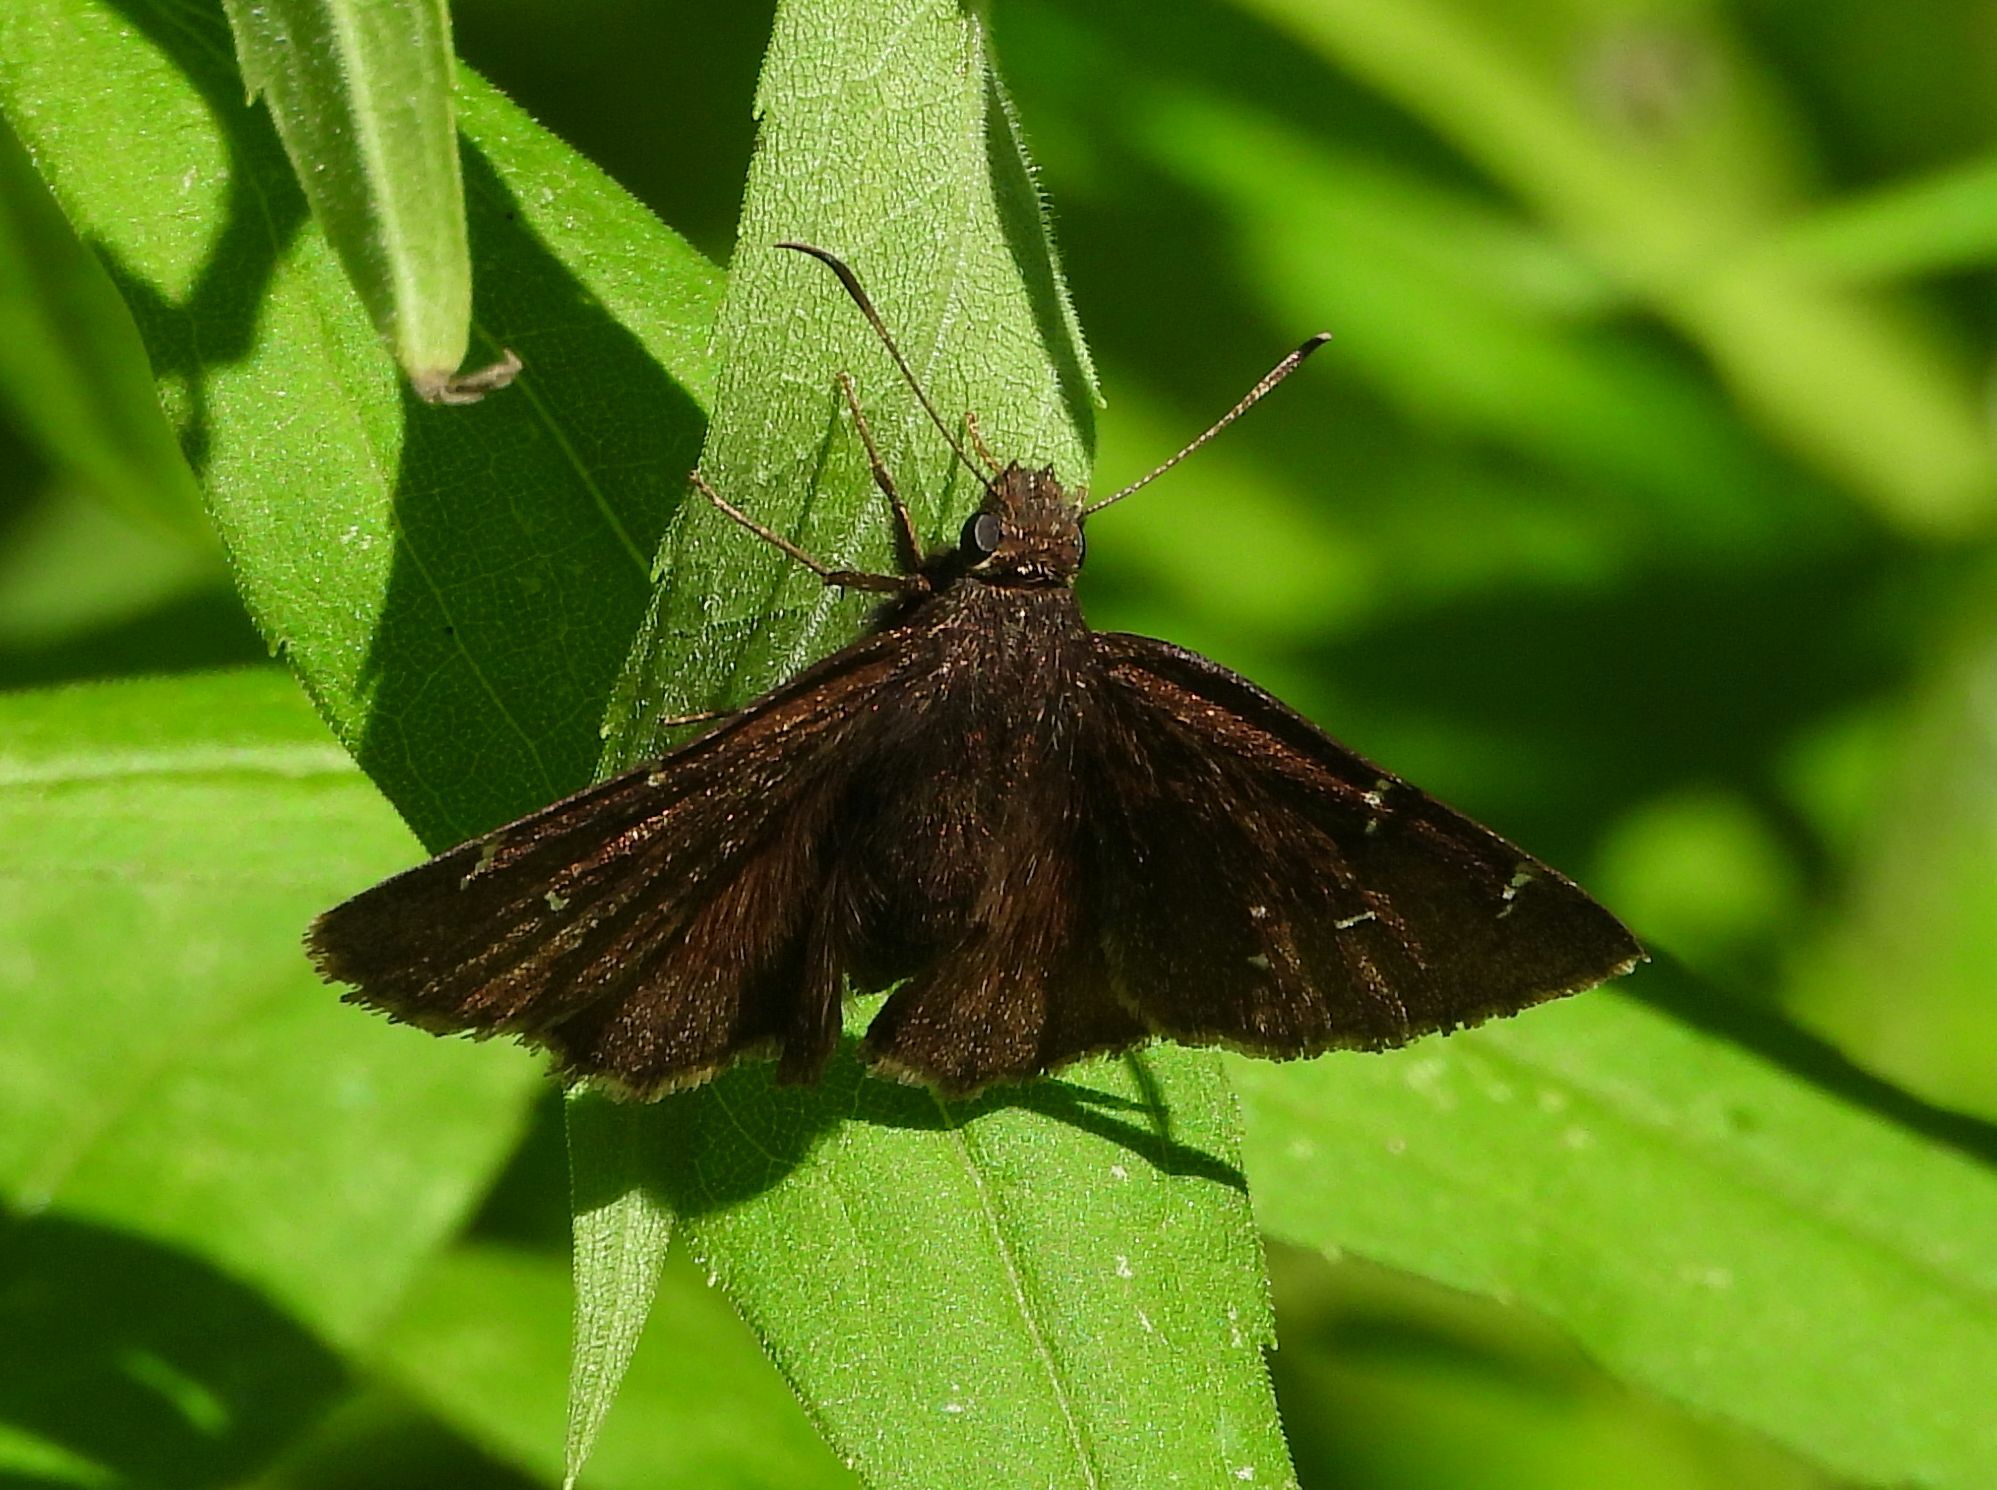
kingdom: Animalia
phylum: Arthropoda
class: Insecta
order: Lepidoptera
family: Hesperiidae
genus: Thorybes
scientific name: Thorybes pylades
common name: Northern cloudywing
